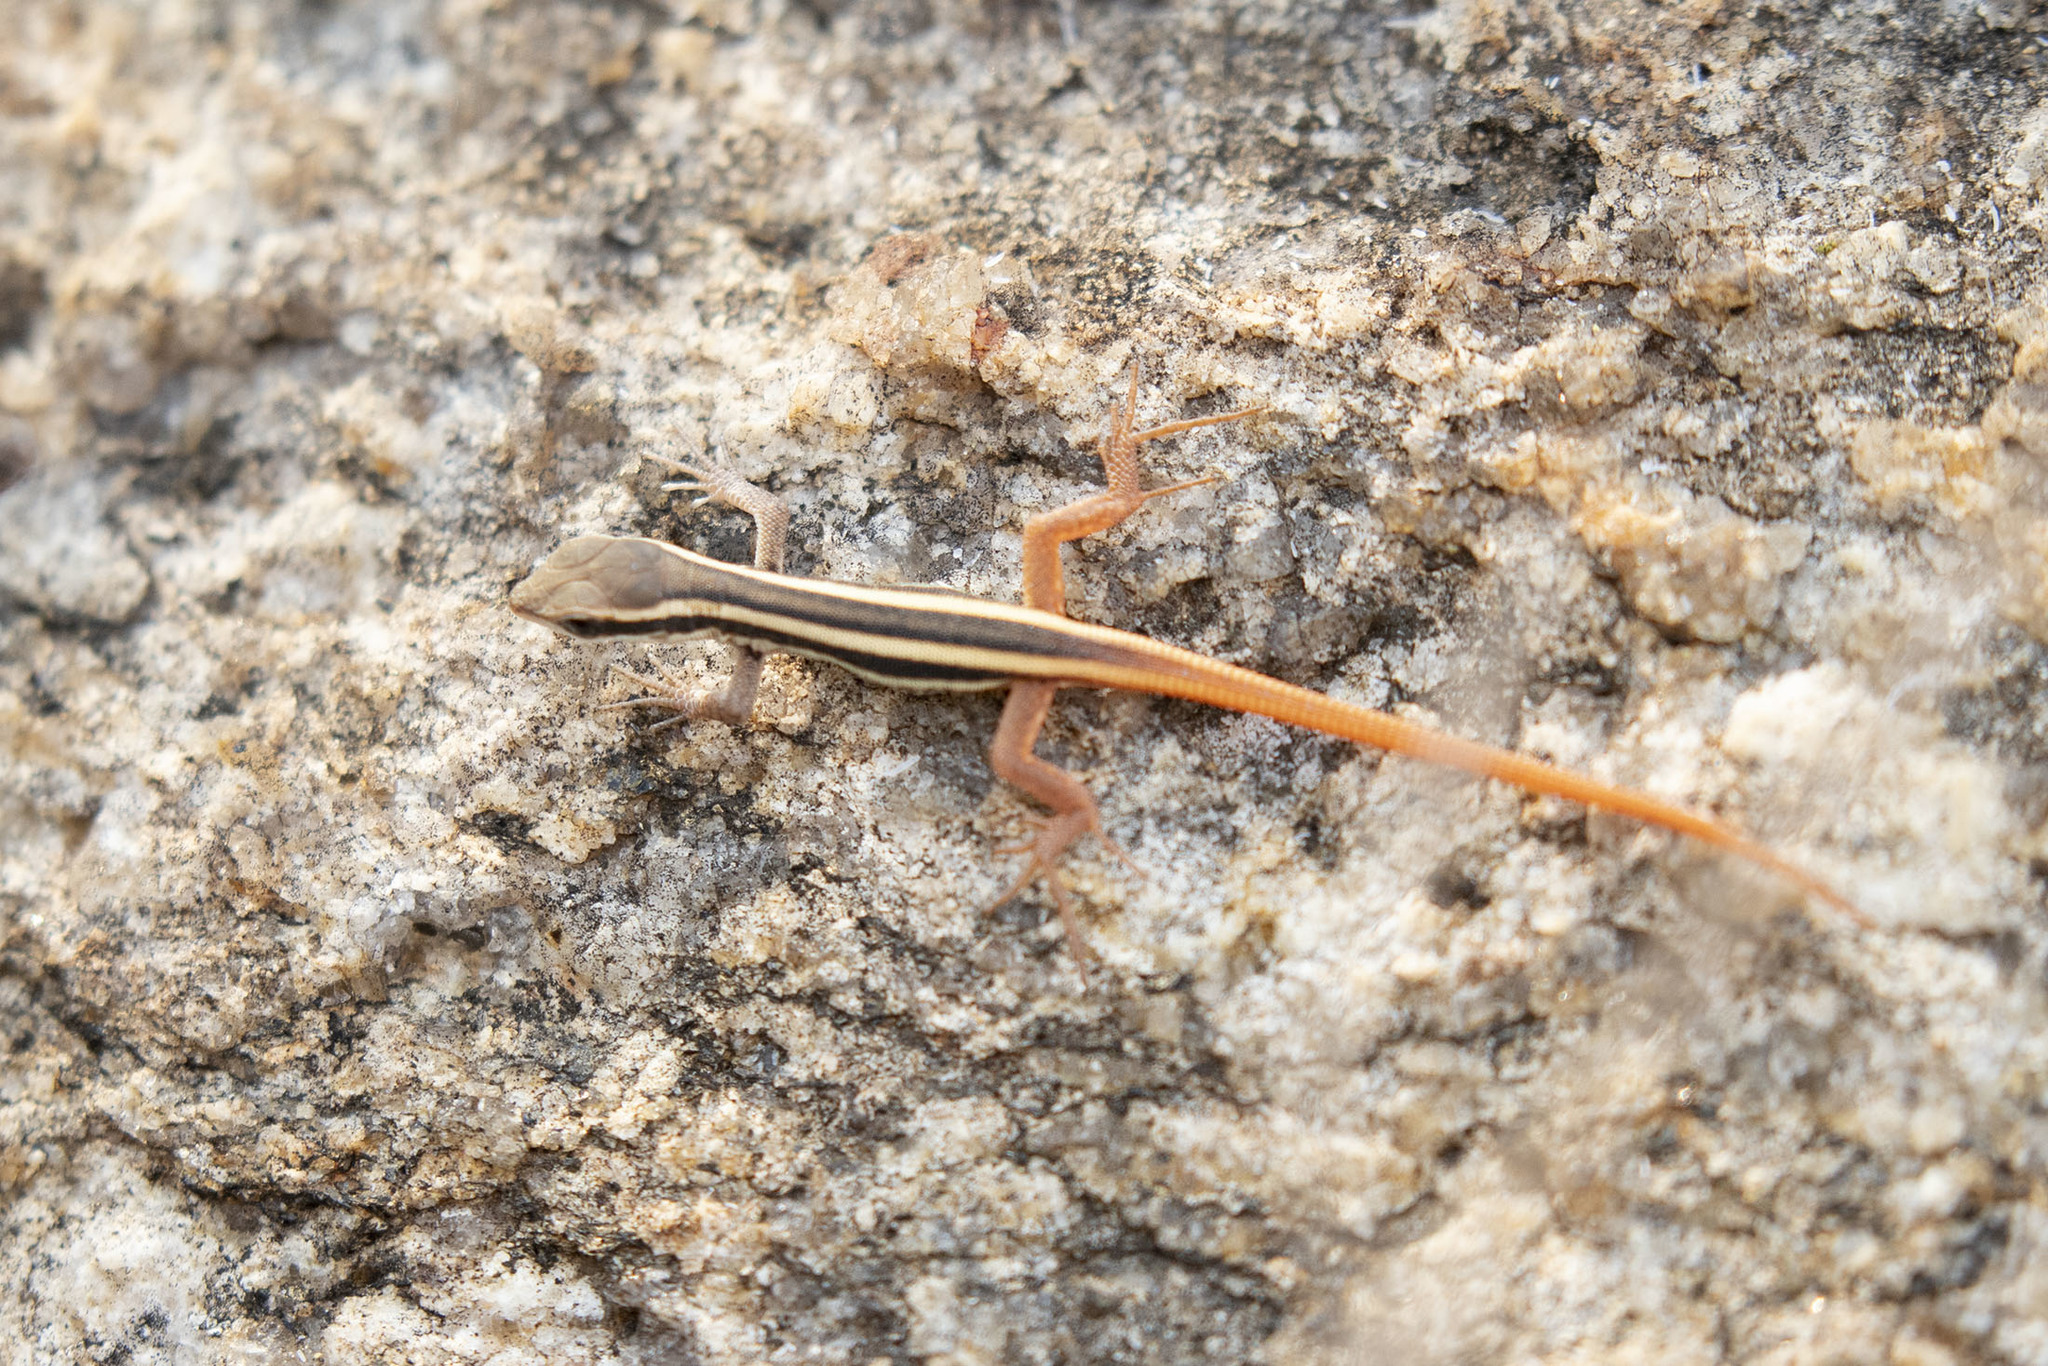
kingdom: Animalia
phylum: Chordata
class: Squamata
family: Lacertidae
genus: Ophisops
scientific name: Ophisops leschenaultii
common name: Leschenault's cabrita
